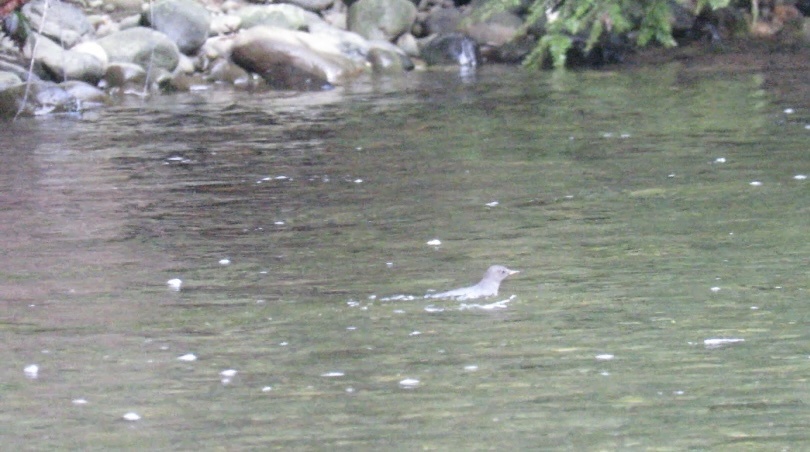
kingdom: Animalia
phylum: Chordata
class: Aves
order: Passeriformes
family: Cinclidae
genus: Cinclus
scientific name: Cinclus mexicanus
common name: American dipper
